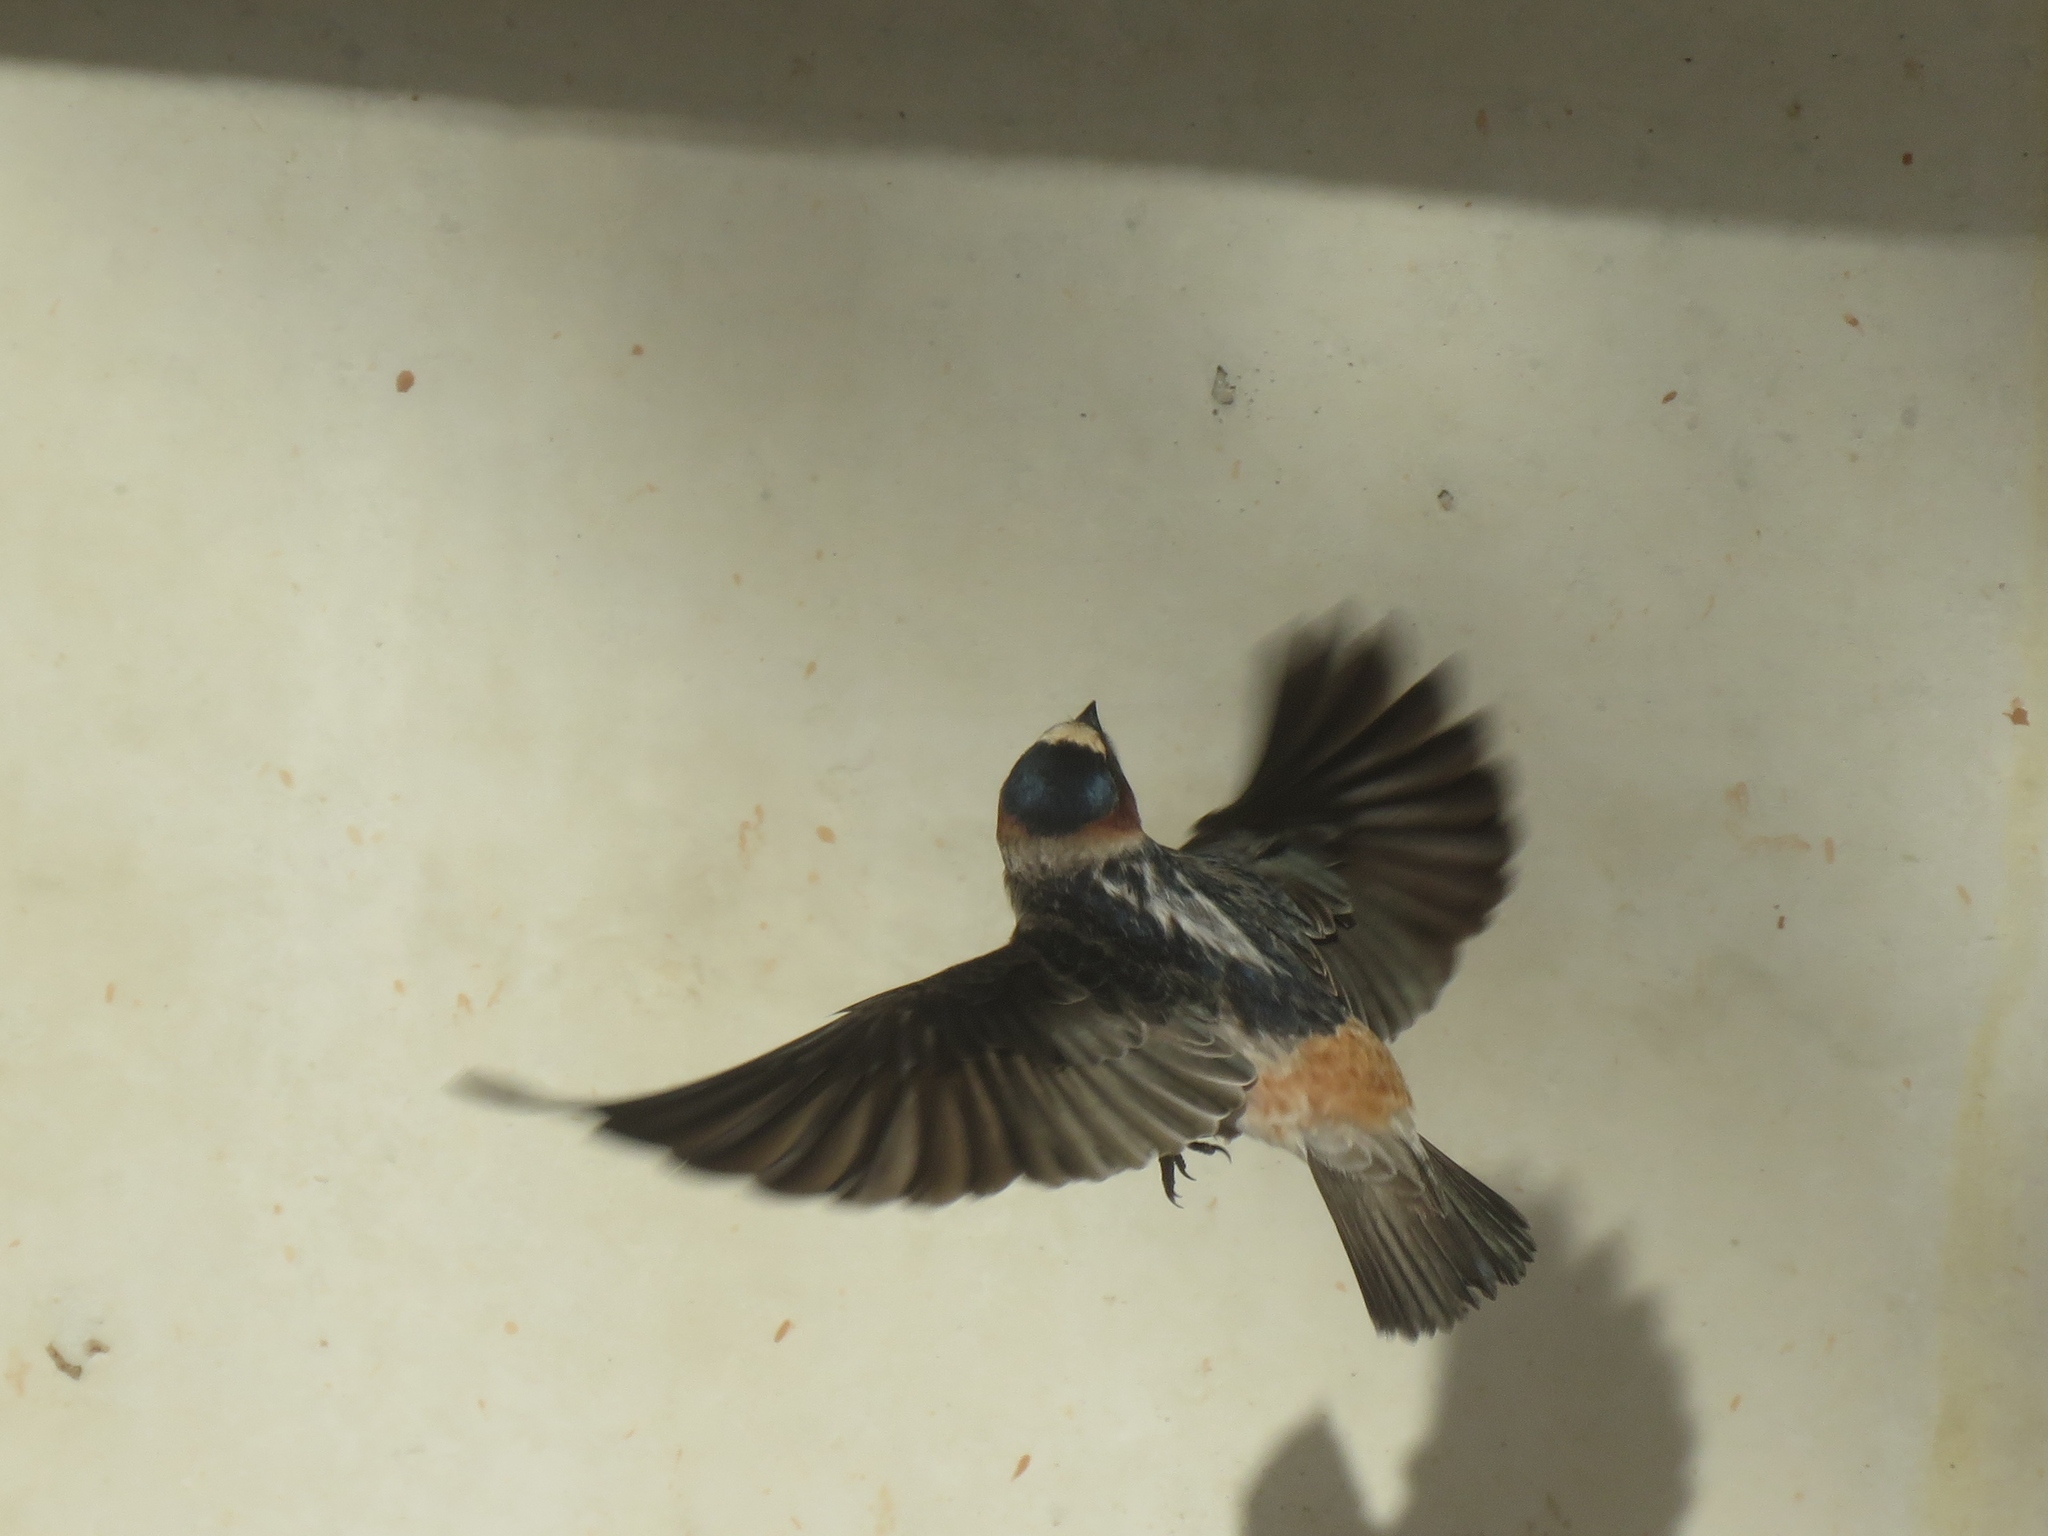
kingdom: Animalia
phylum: Chordata
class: Aves
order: Passeriformes
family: Hirundinidae
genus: Petrochelidon
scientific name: Petrochelidon pyrrhonota
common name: American cliff swallow
